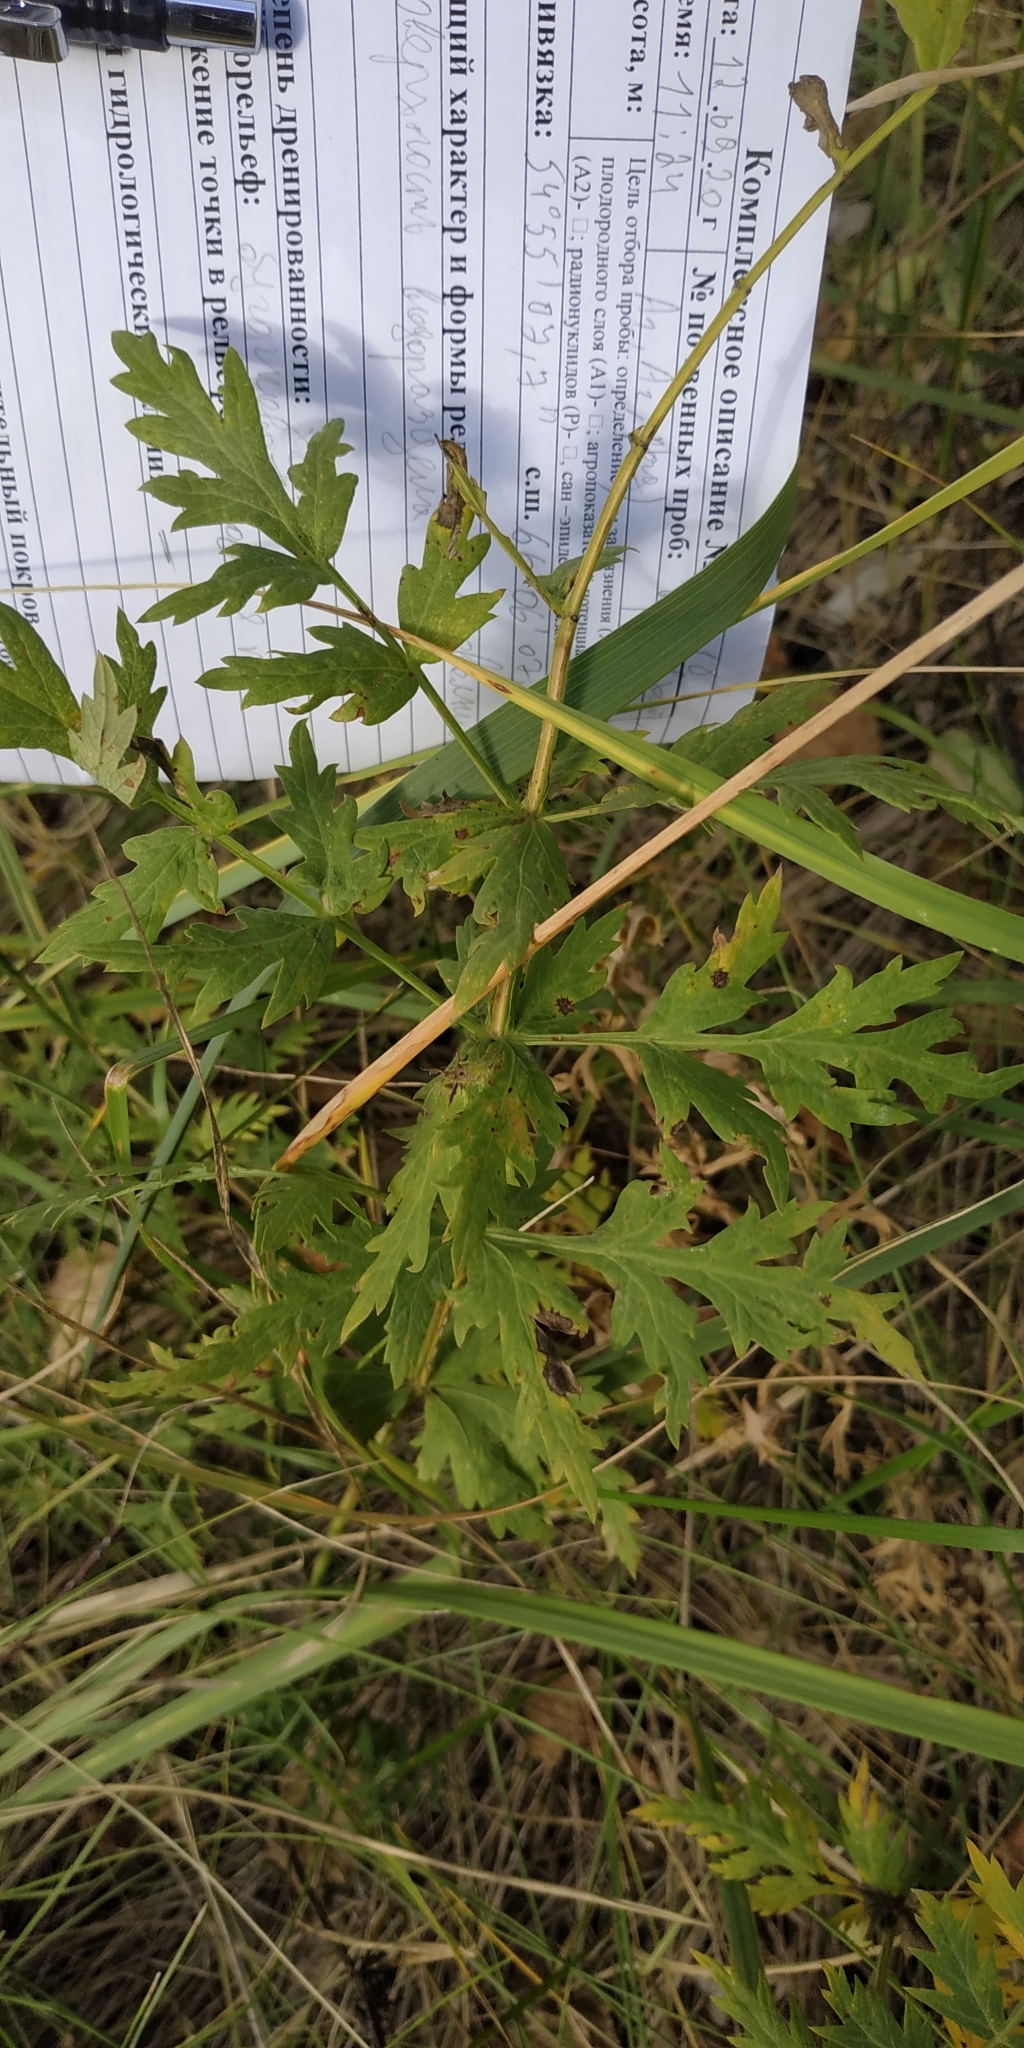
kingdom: Plantae
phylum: Tracheophyta
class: Magnoliopsida
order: Apiales
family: Apiaceae
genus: Seseli
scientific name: Seseli libanotis
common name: Mooncarrot
